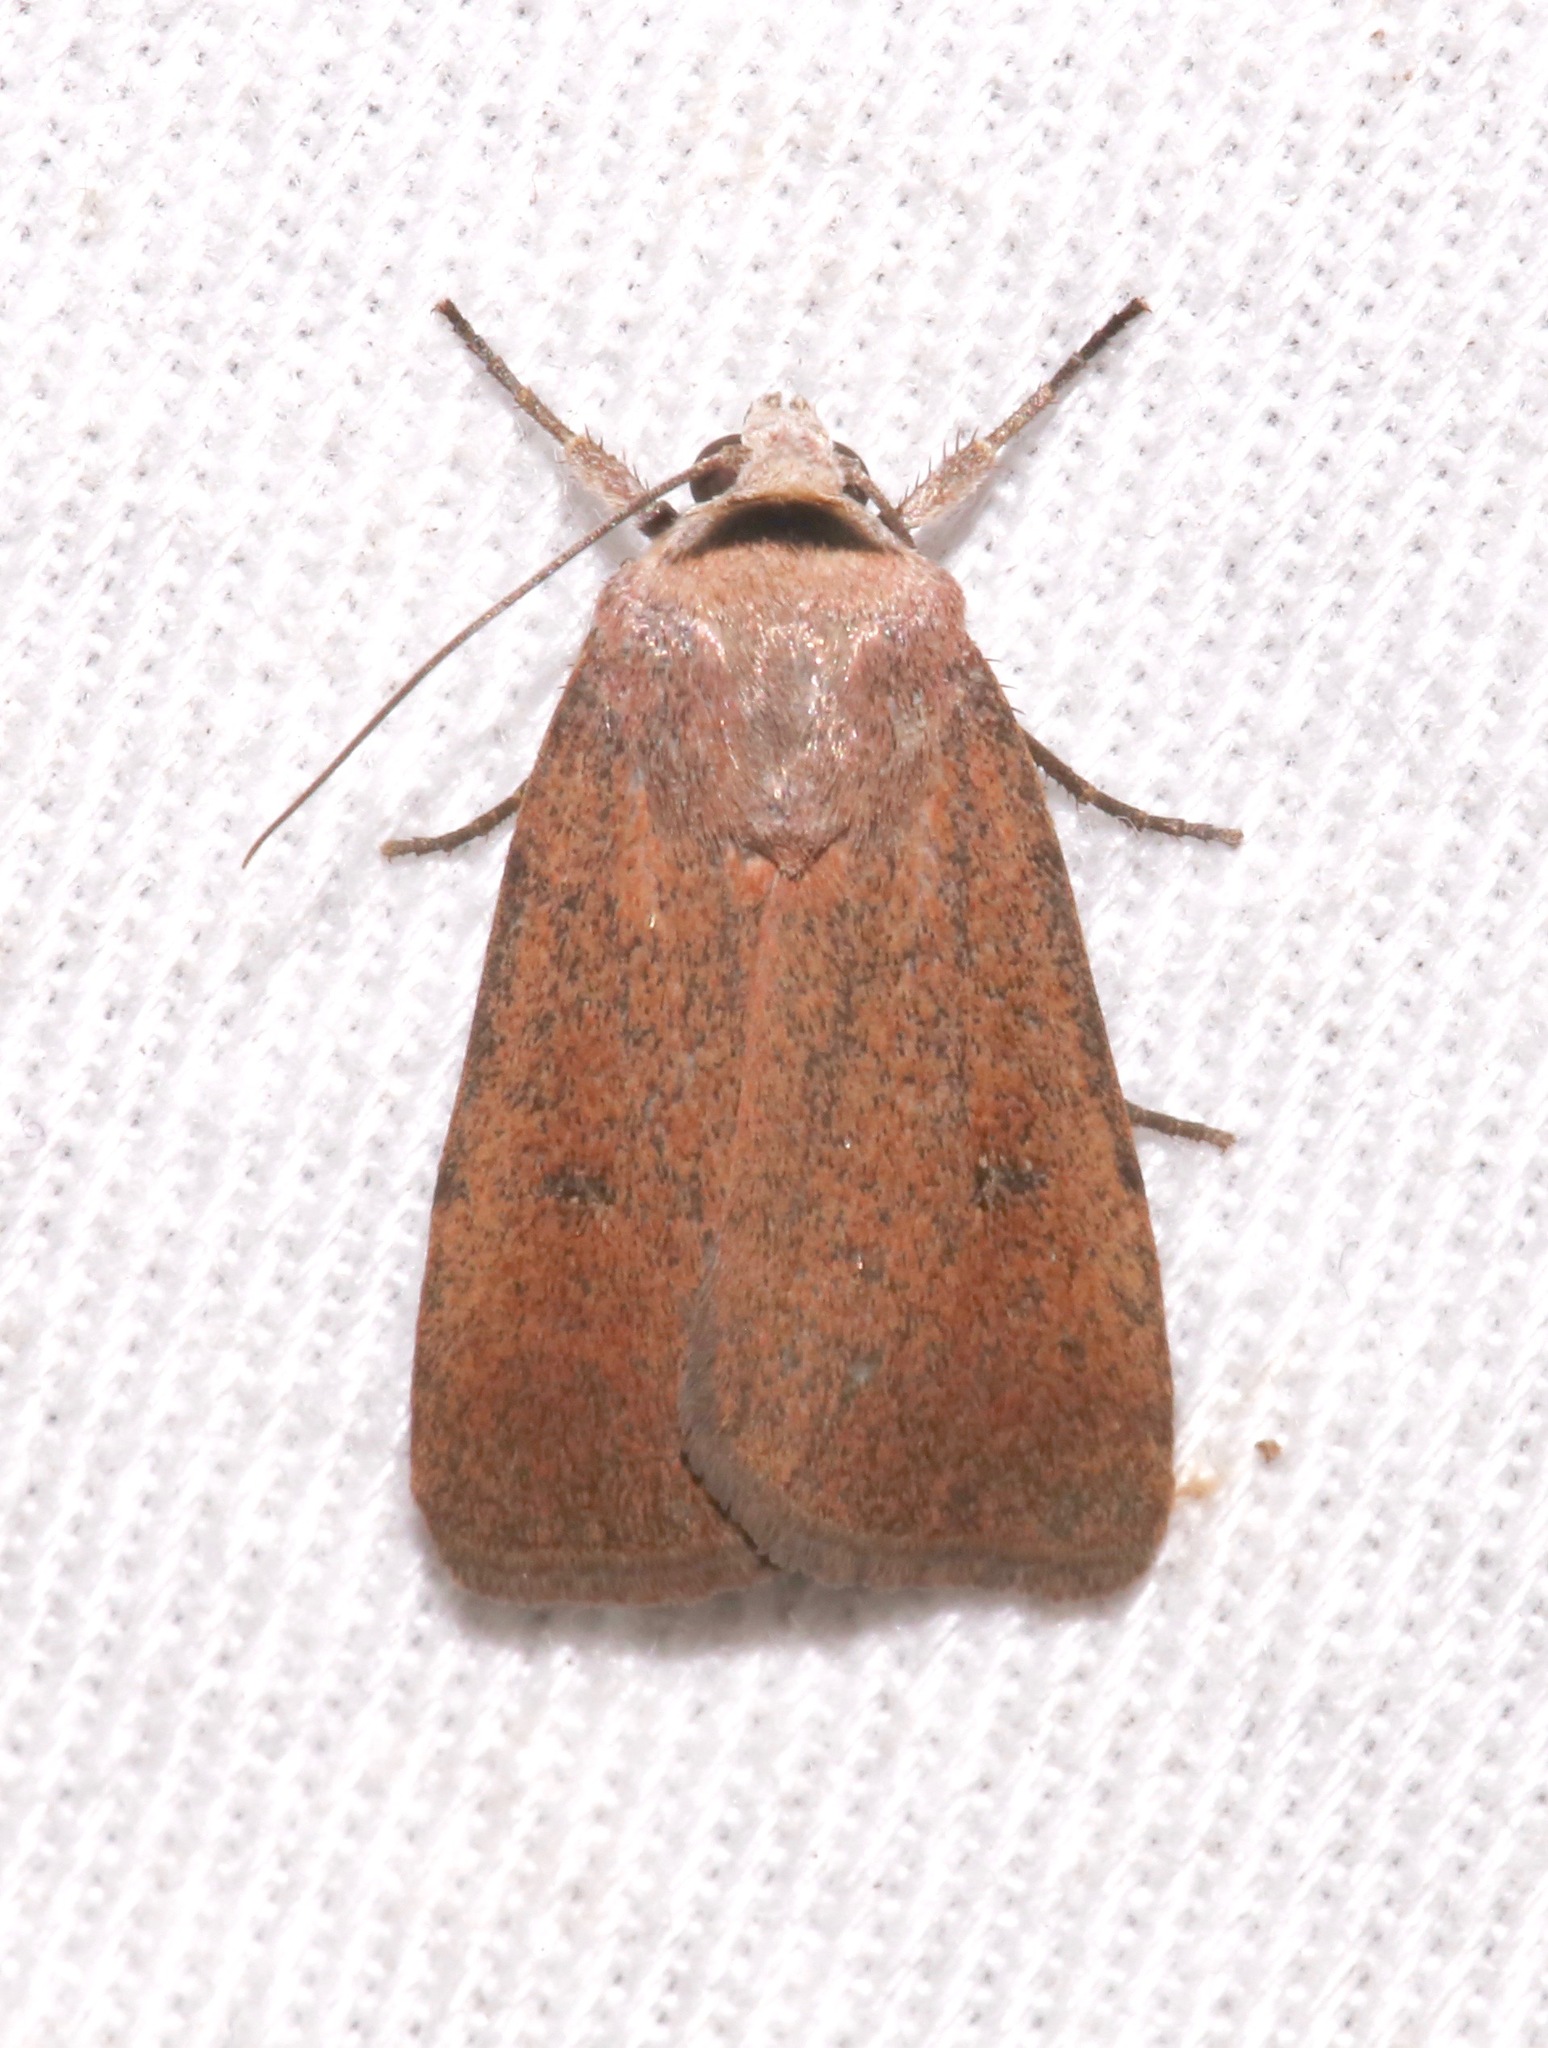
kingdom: Animalia
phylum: Arthropoda
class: Insecta
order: Lepidoptera
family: Noctuidae
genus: Anicla
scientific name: Anicla biformata
